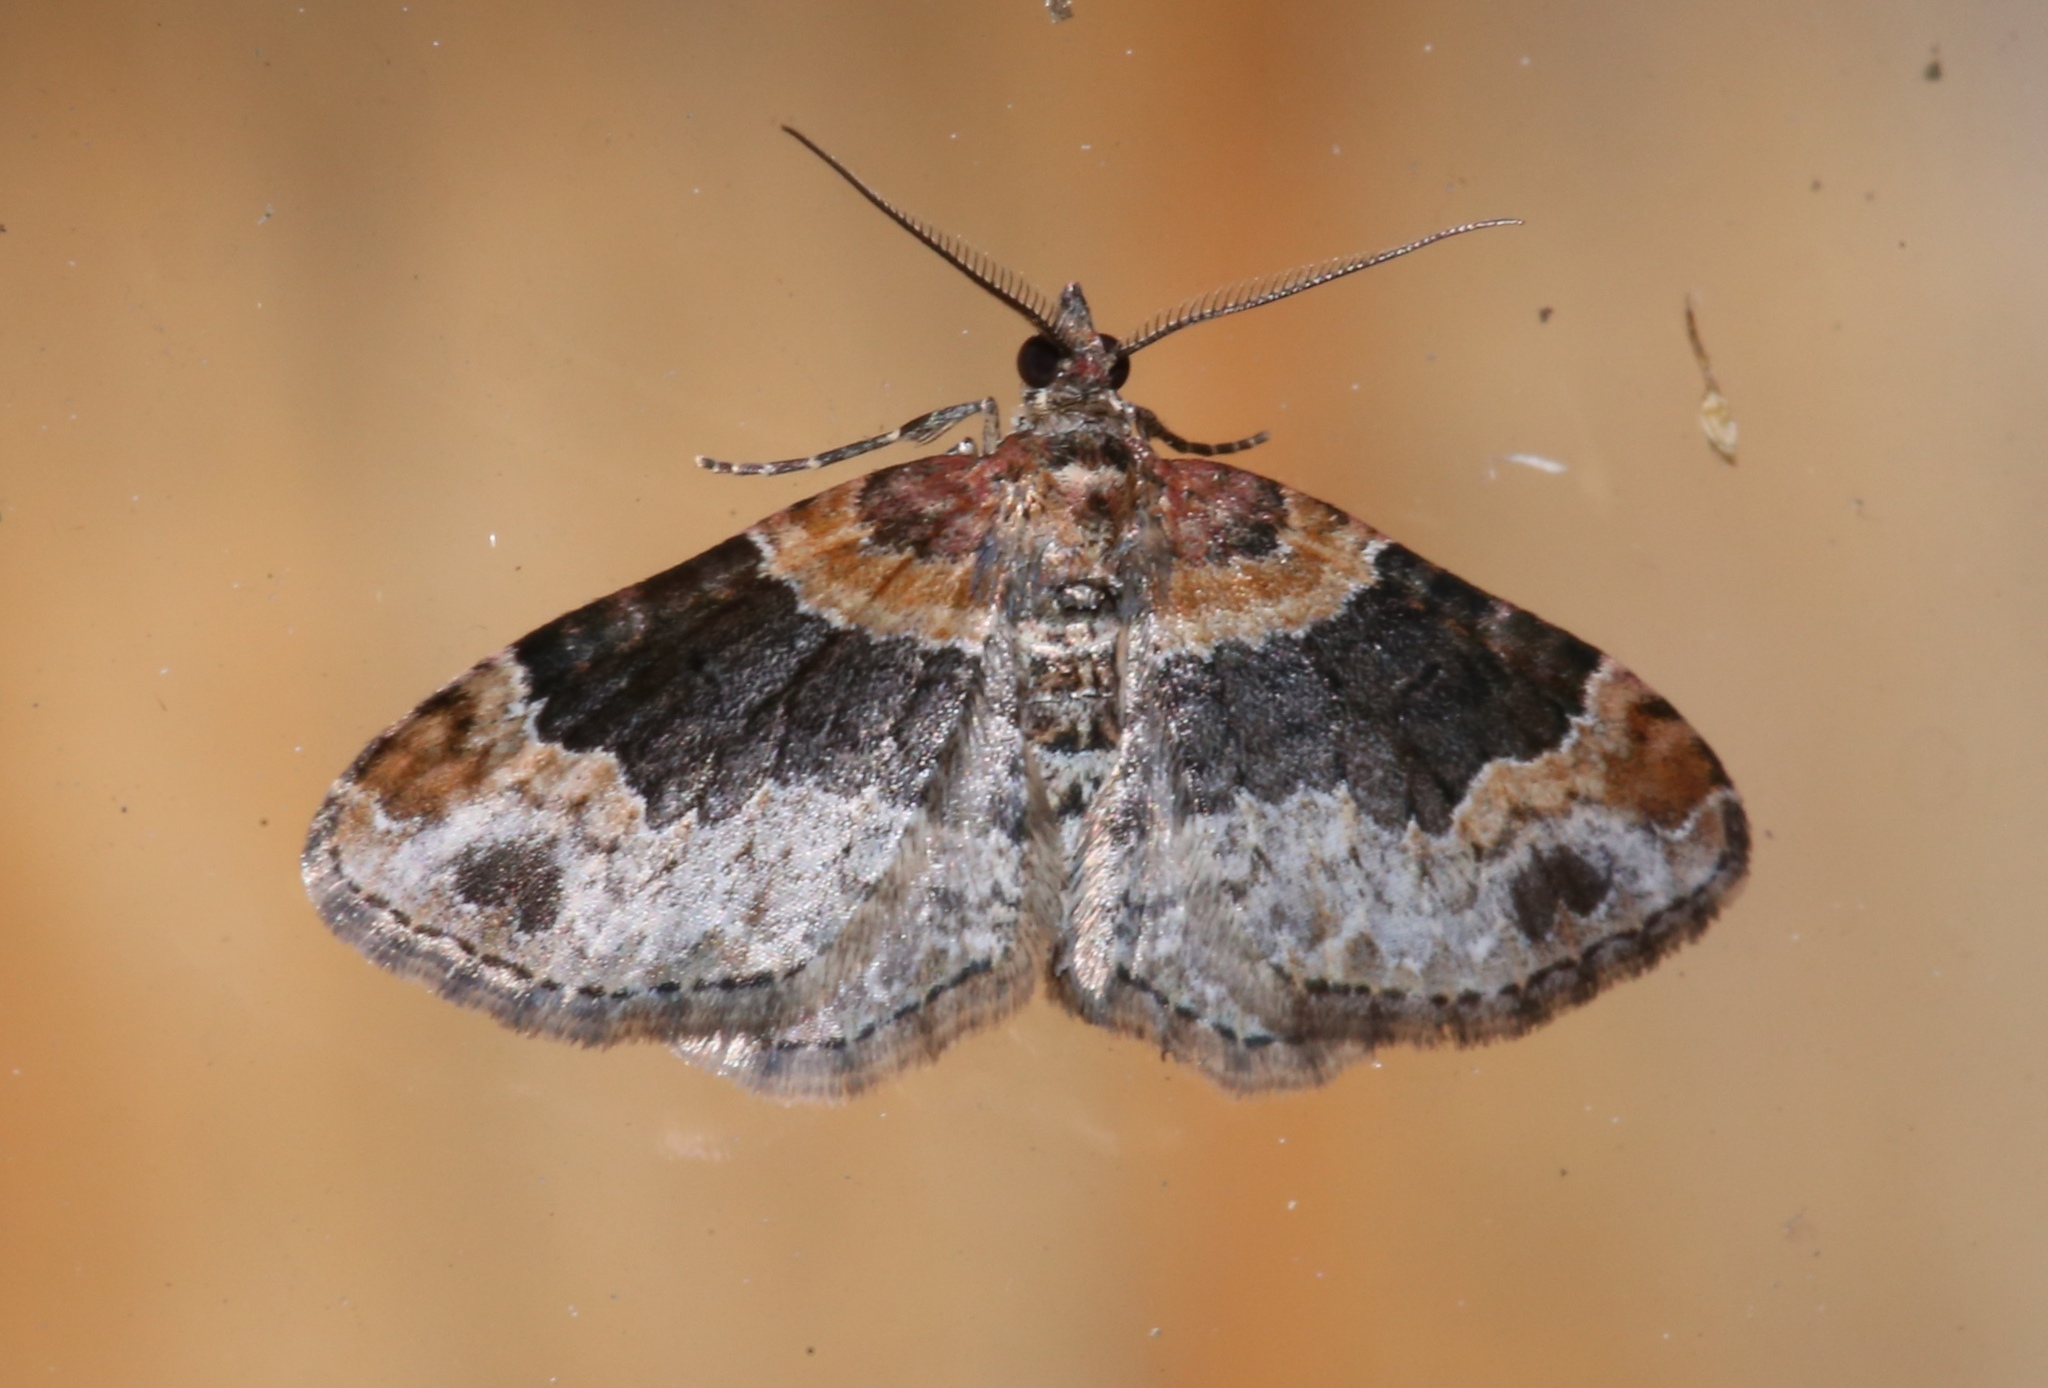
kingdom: Animalia
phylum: Arthropoda
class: Insecta
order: Lepidoptera
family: Geometridae
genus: Xanthorhoe
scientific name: Xanthorhoe ferrugata
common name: Dark-barred twin-spot carpet
